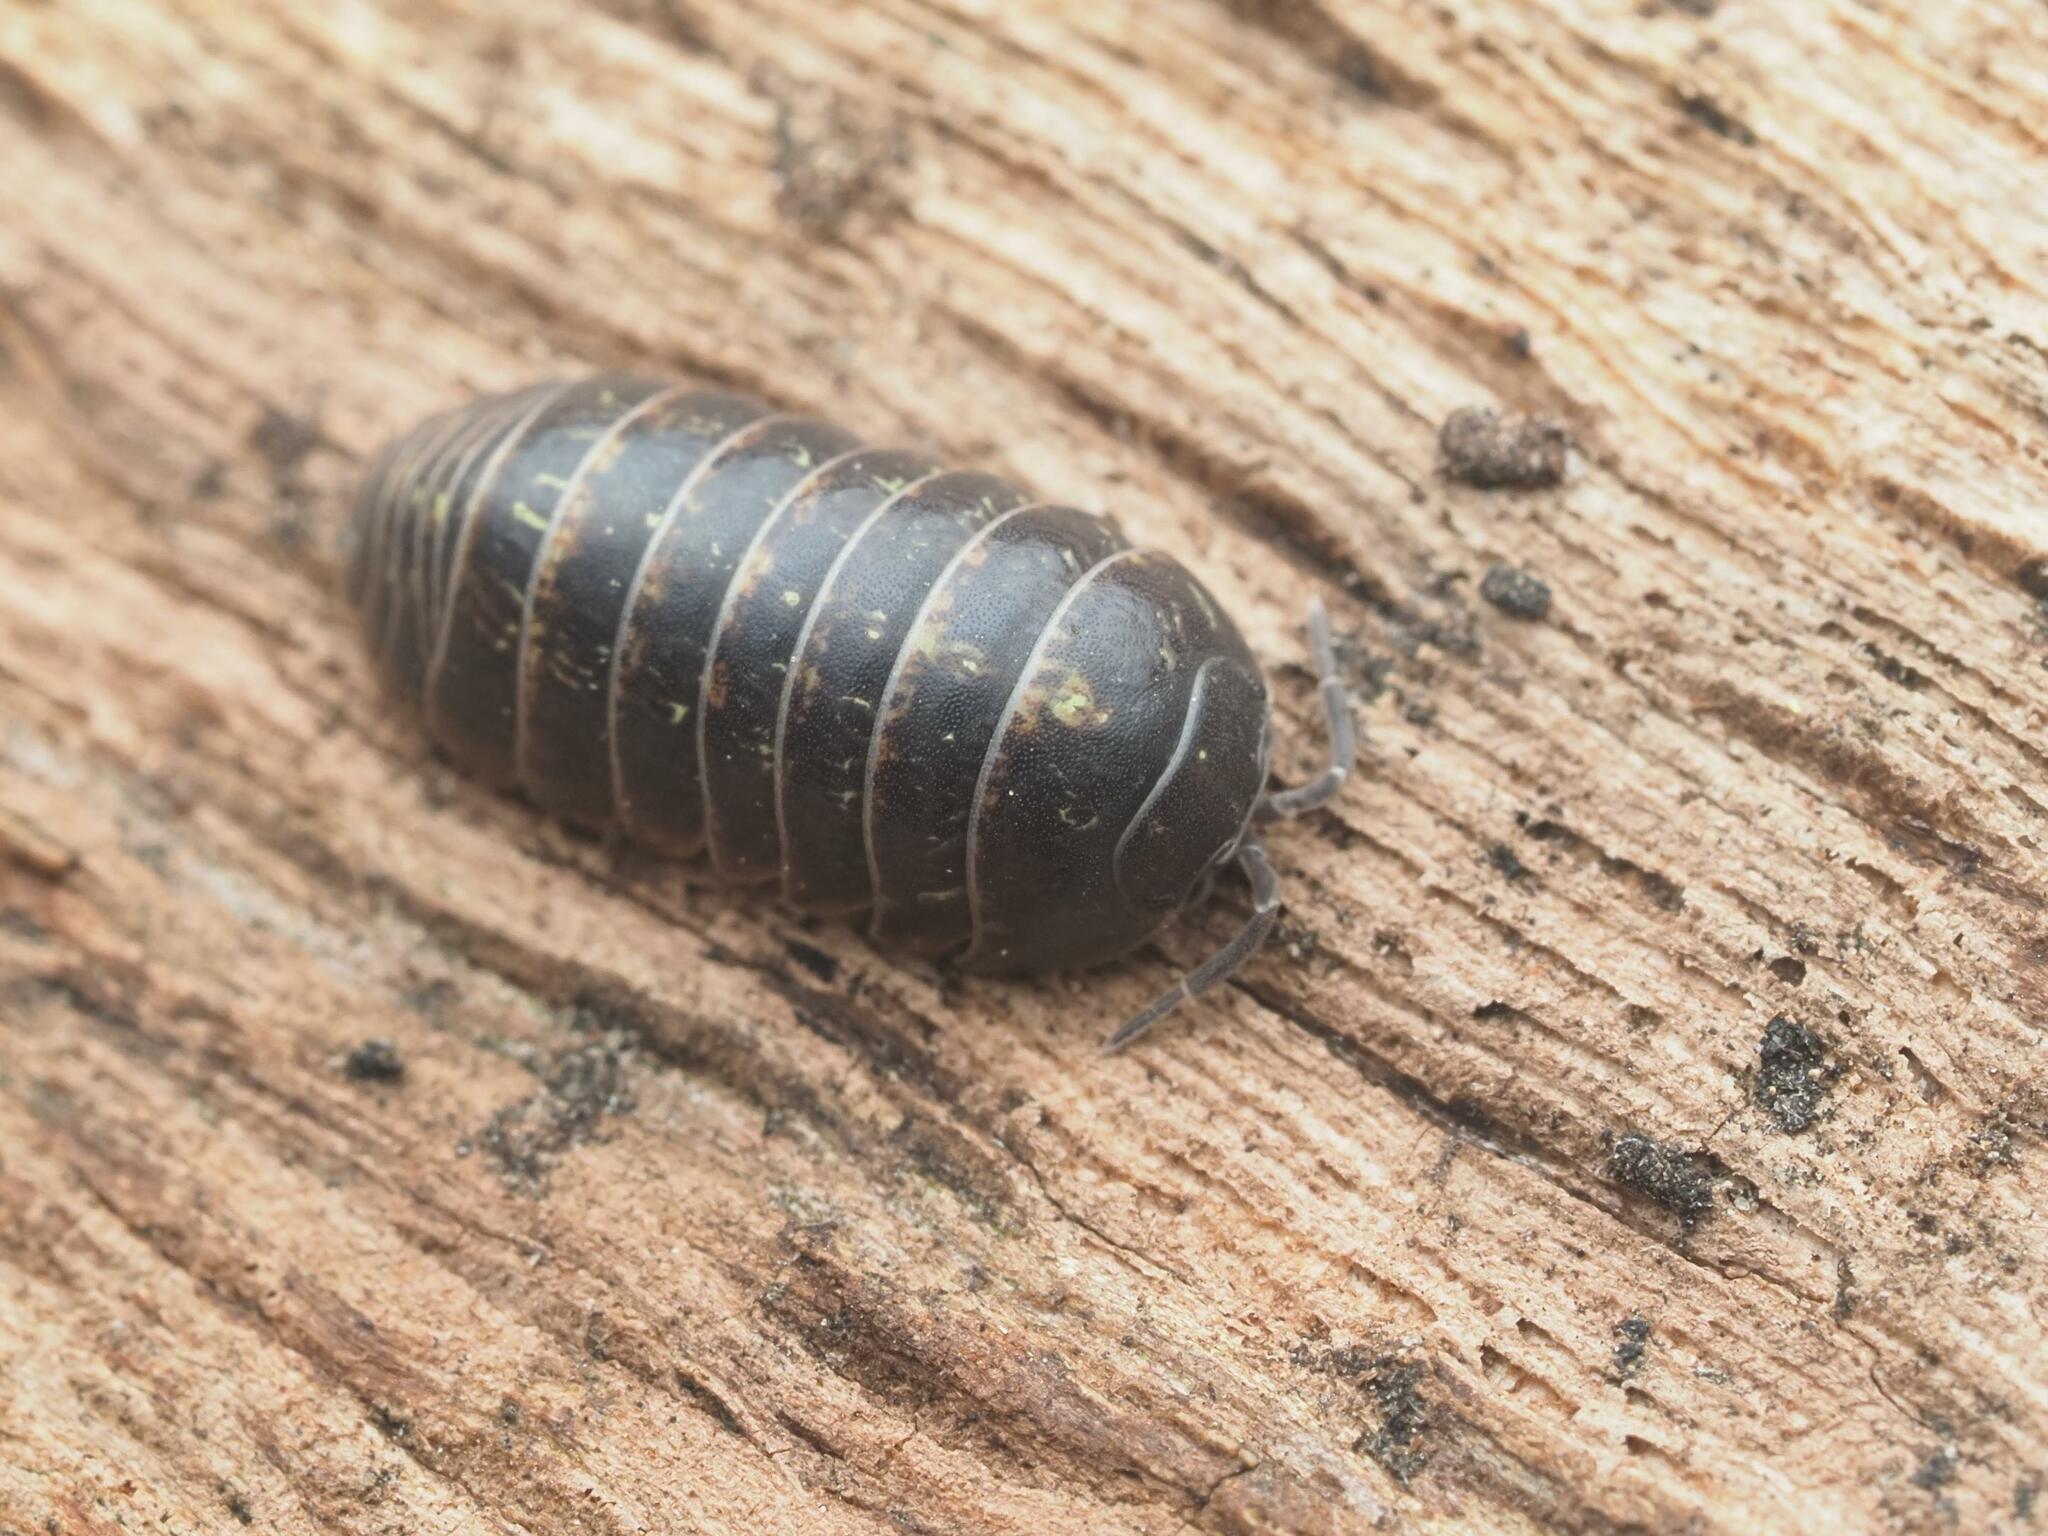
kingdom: Animalia
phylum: Arthropoda
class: Malacostraca
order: Isopoda
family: Armadillidiidae
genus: Armadillidium
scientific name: Armadillidium vulgare
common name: Common pill woodlouse
